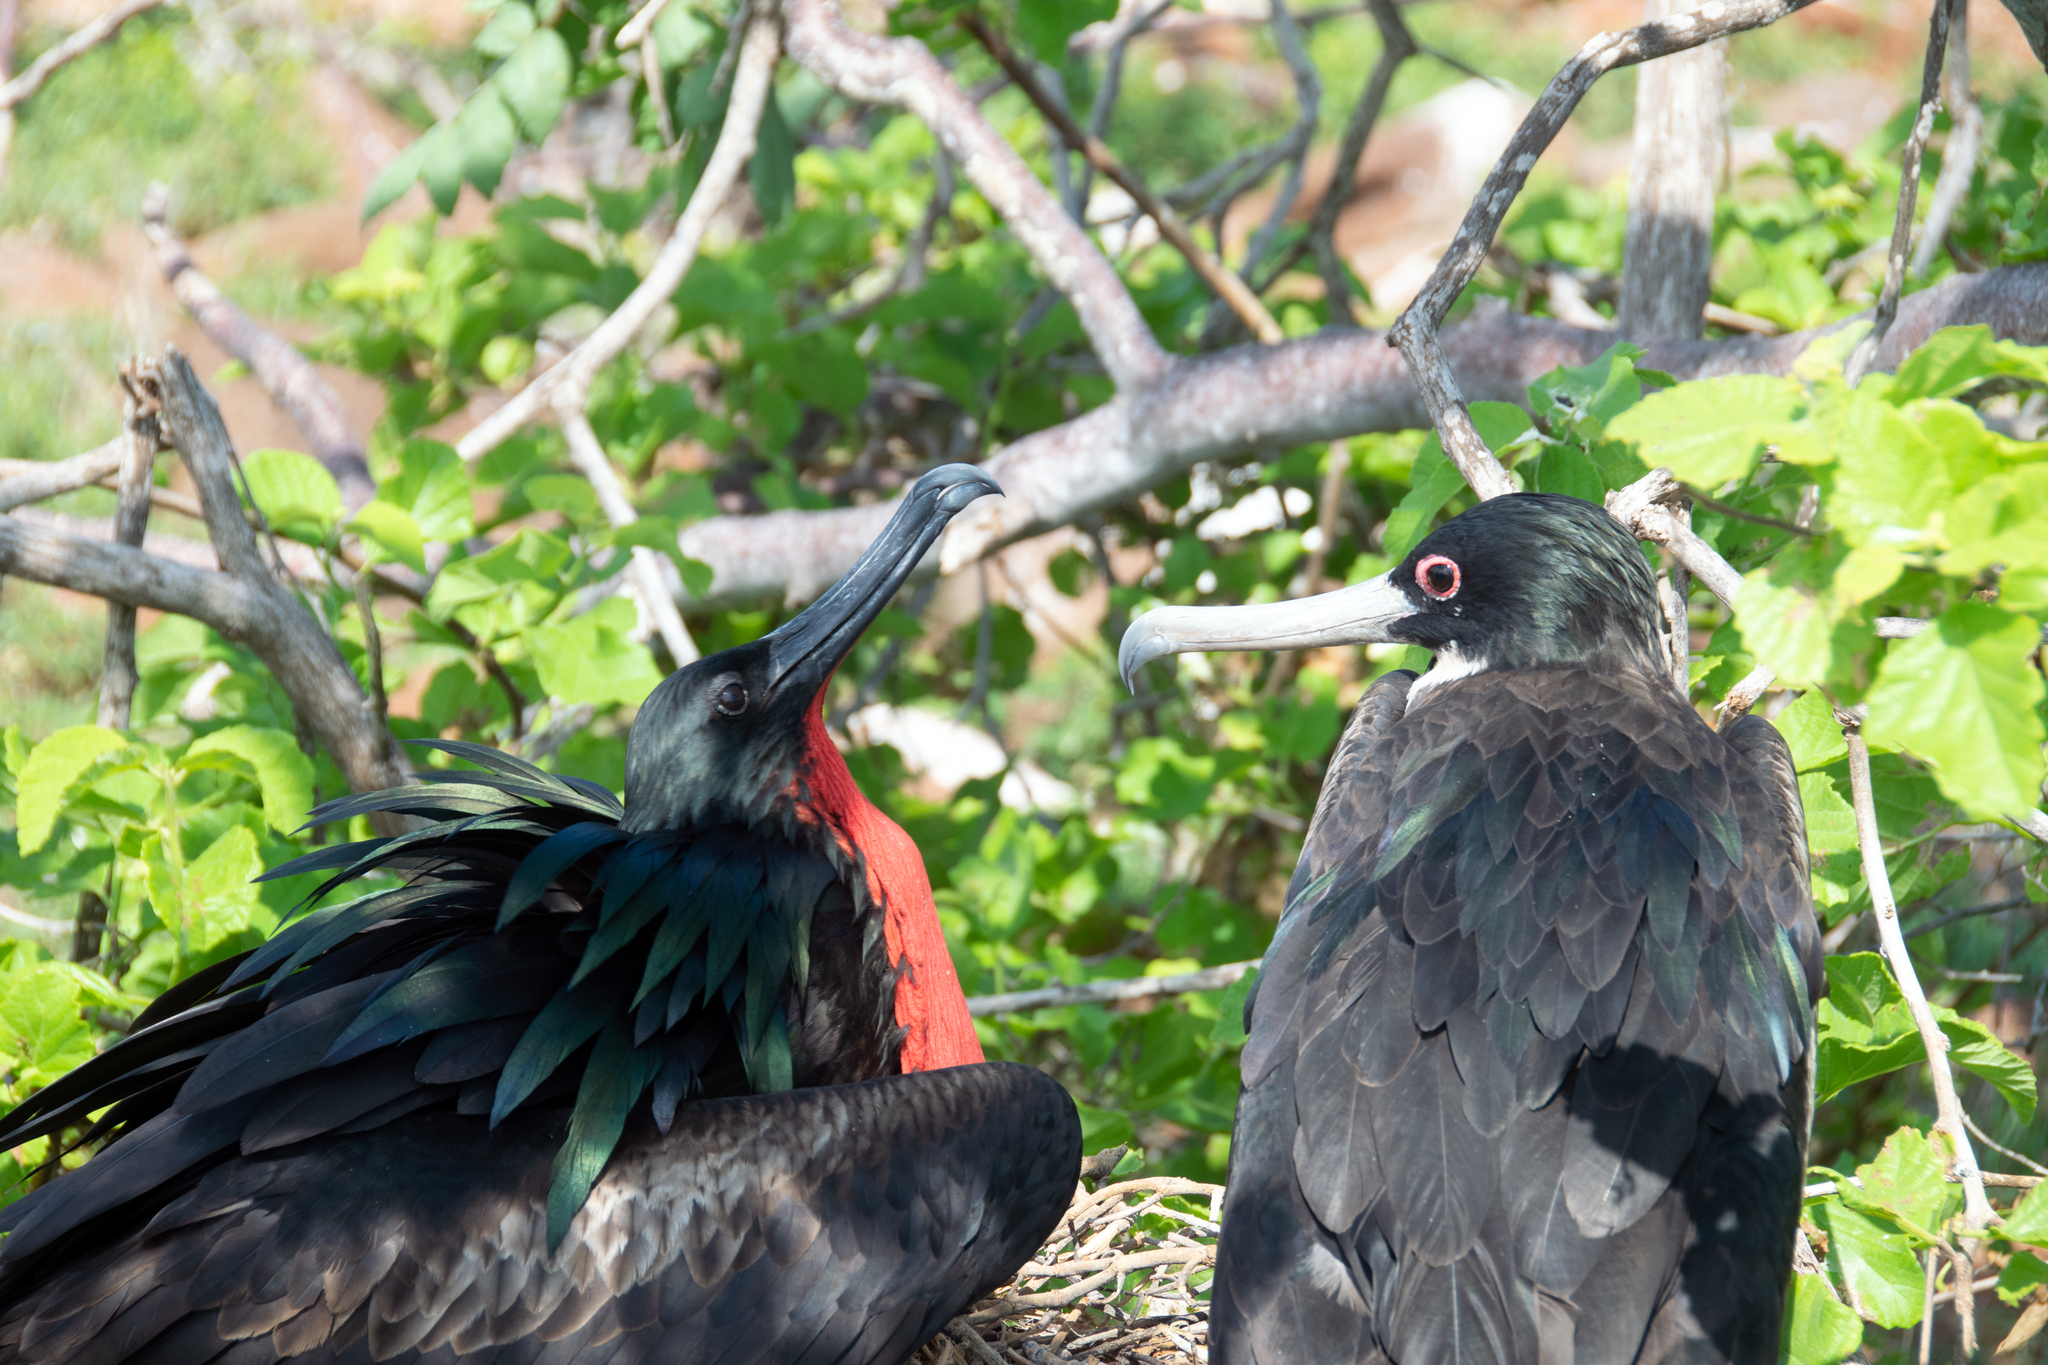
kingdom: Animalia
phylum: Chordata
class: Aves
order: Suliformes
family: Fregatidae
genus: Fregata
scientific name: Fregata minor
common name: Great frigatebird
